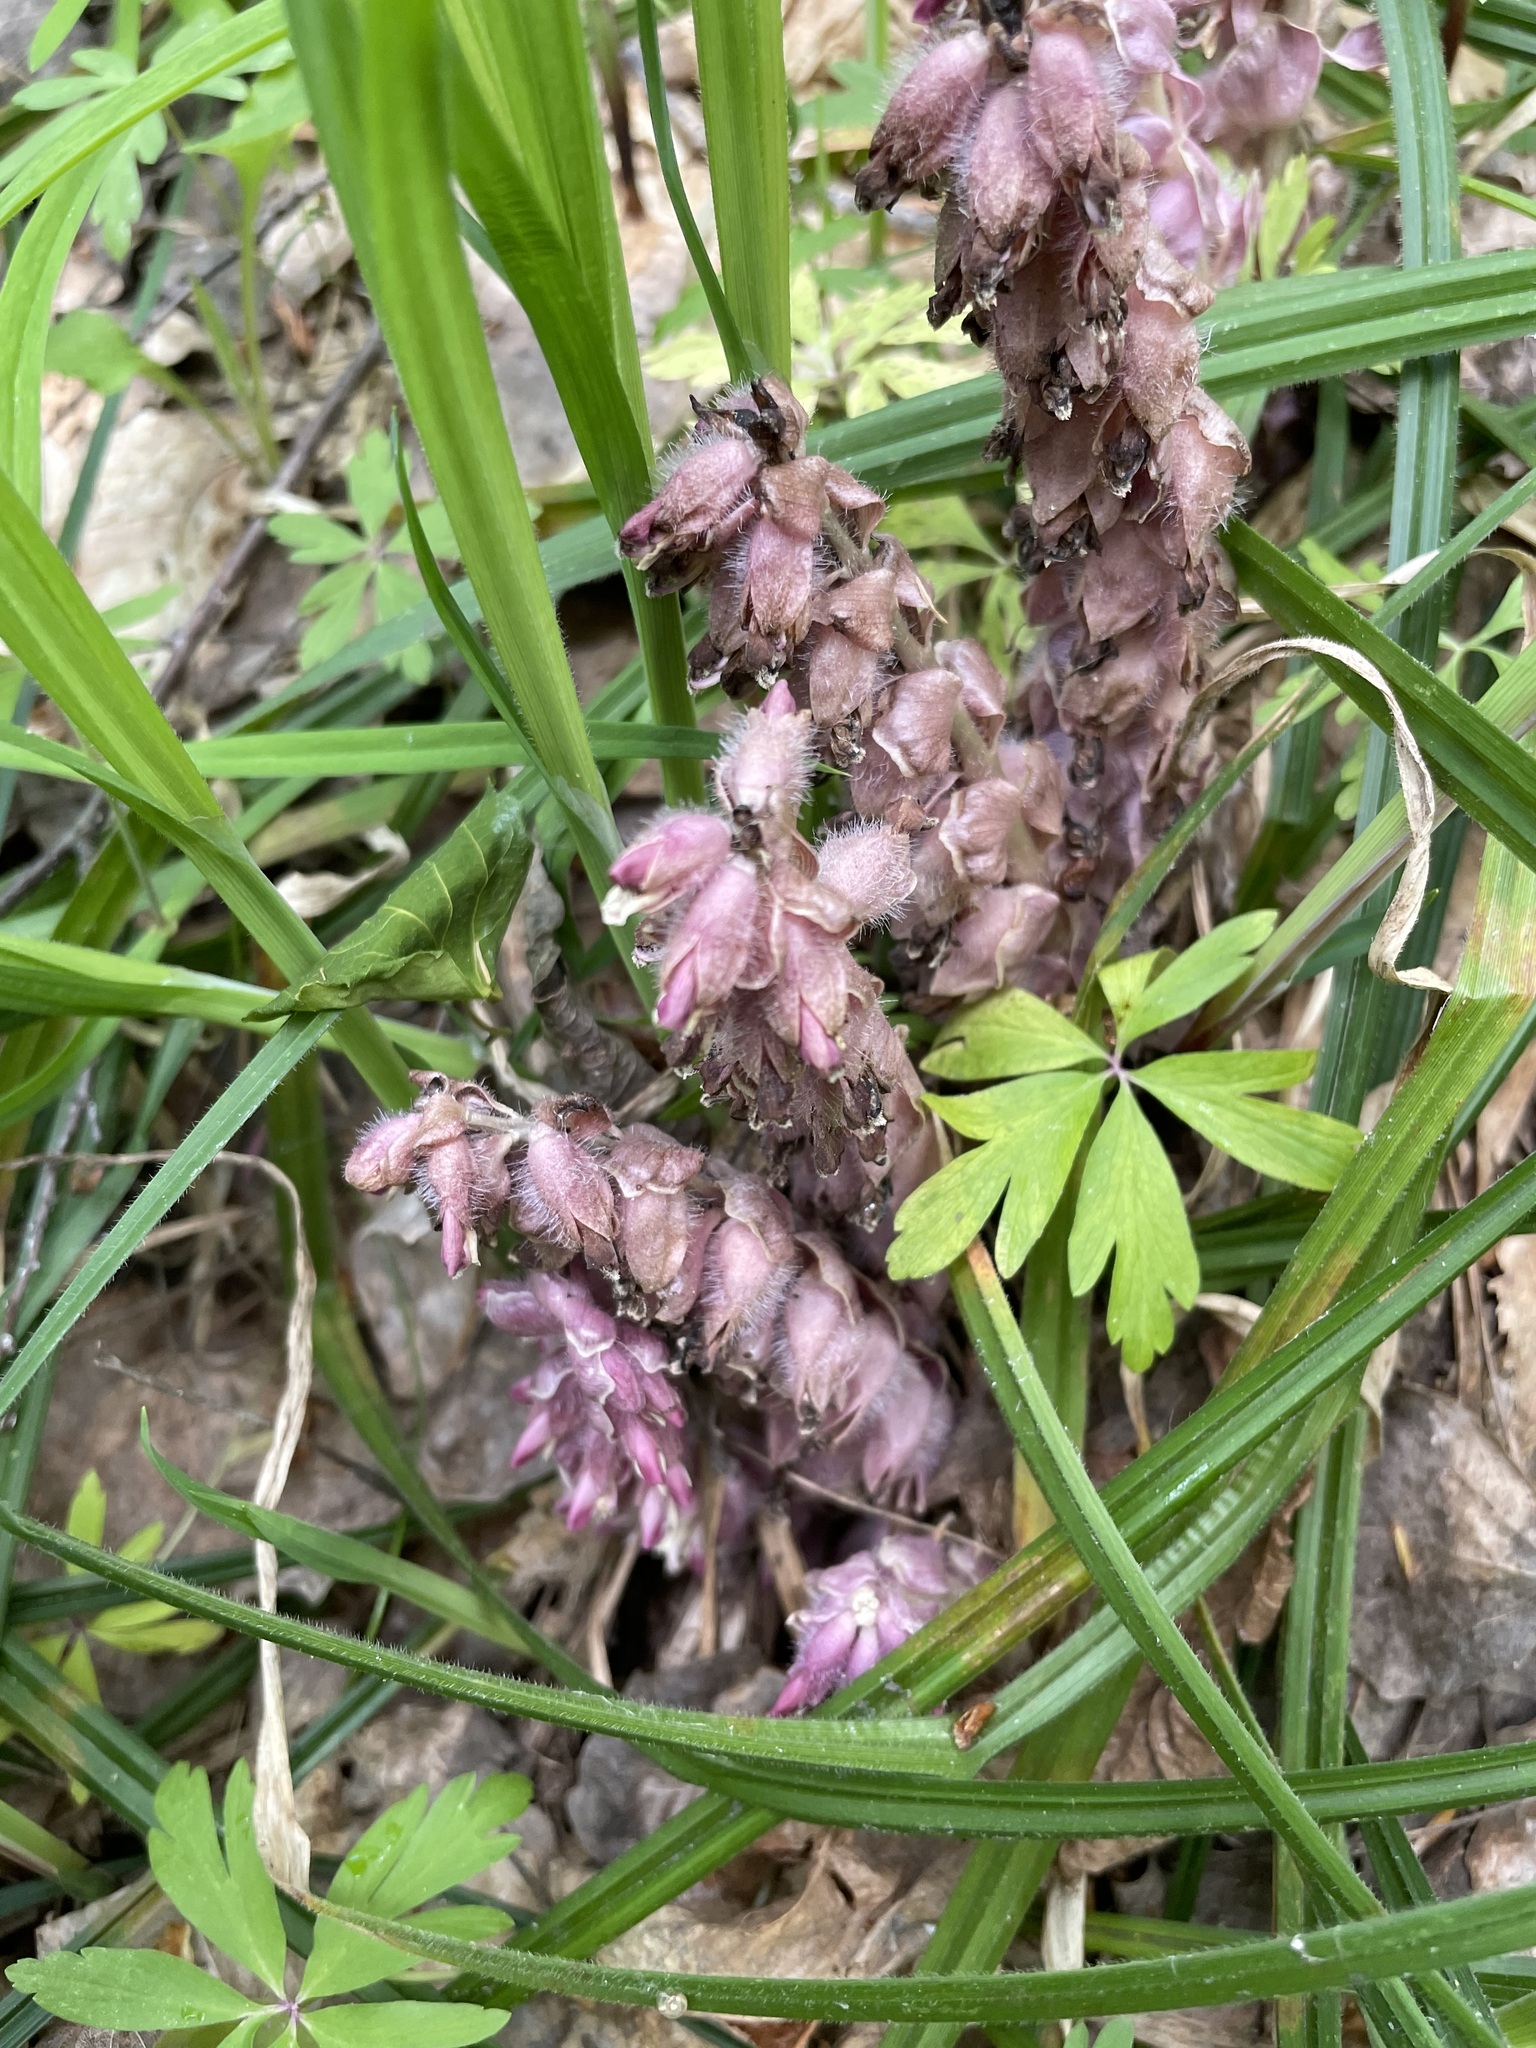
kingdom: Plantae
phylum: Tracheophyta
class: Magnoliopsida
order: Lamiales
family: Orobanchaceae
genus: Lathraea
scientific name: Lathraea squamaria
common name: Toothwort
